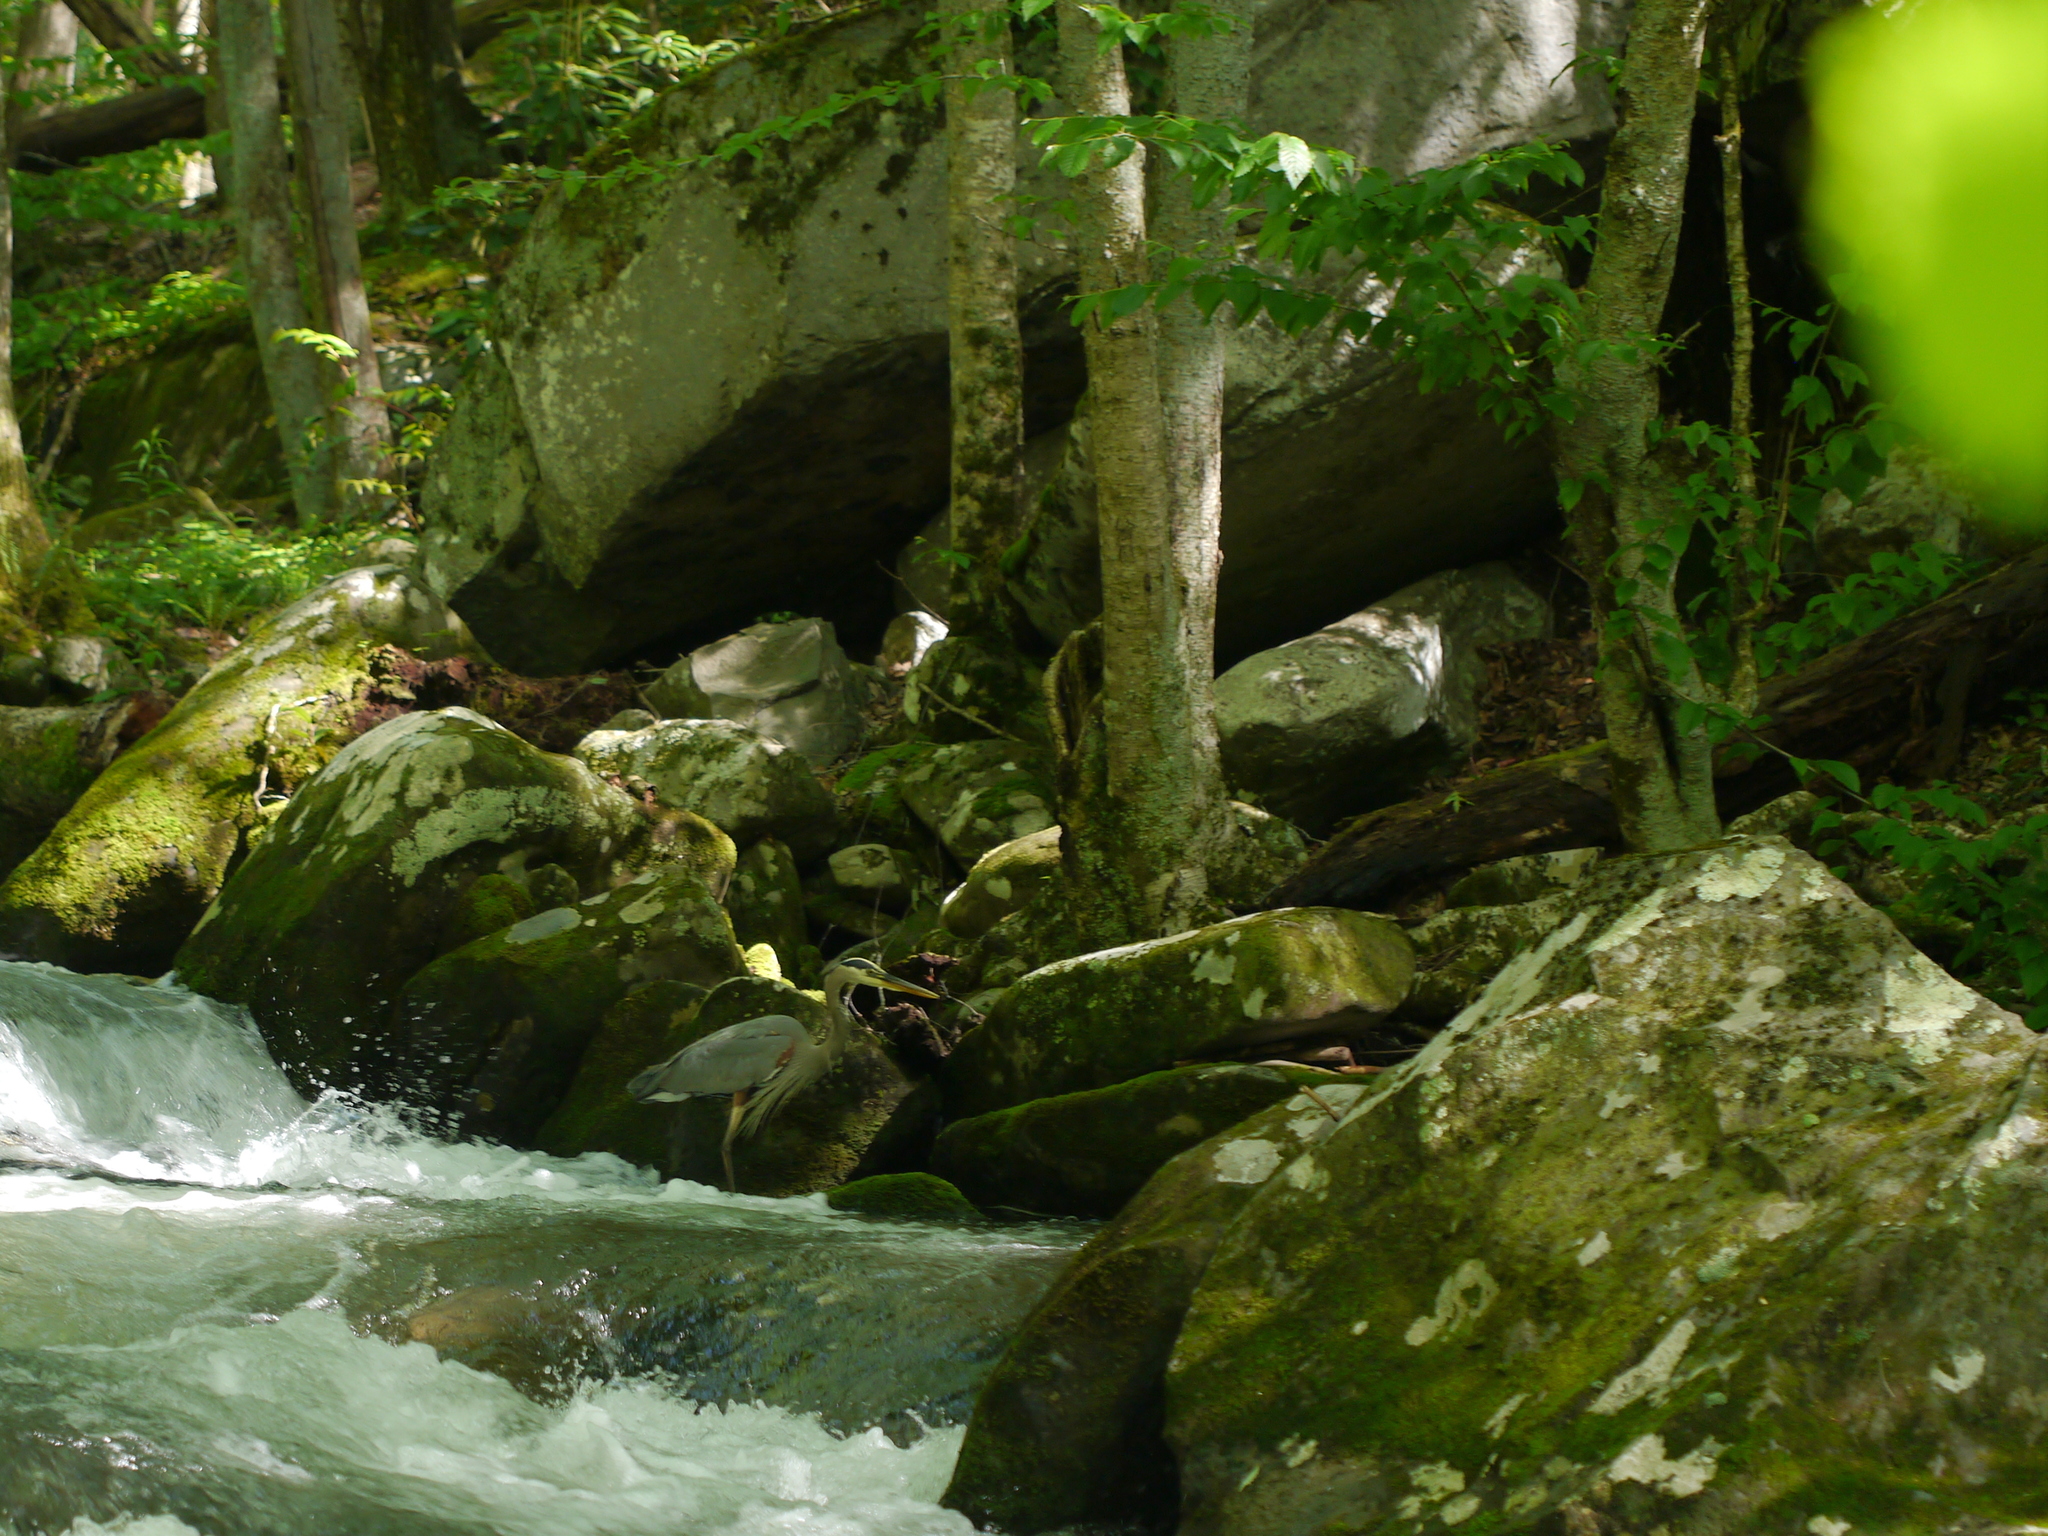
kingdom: Animalia
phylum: Chordata
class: Aves
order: Pelecaniformes
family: Ardeidae
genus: Ardea
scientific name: Ardea herodias
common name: Great blue heron
